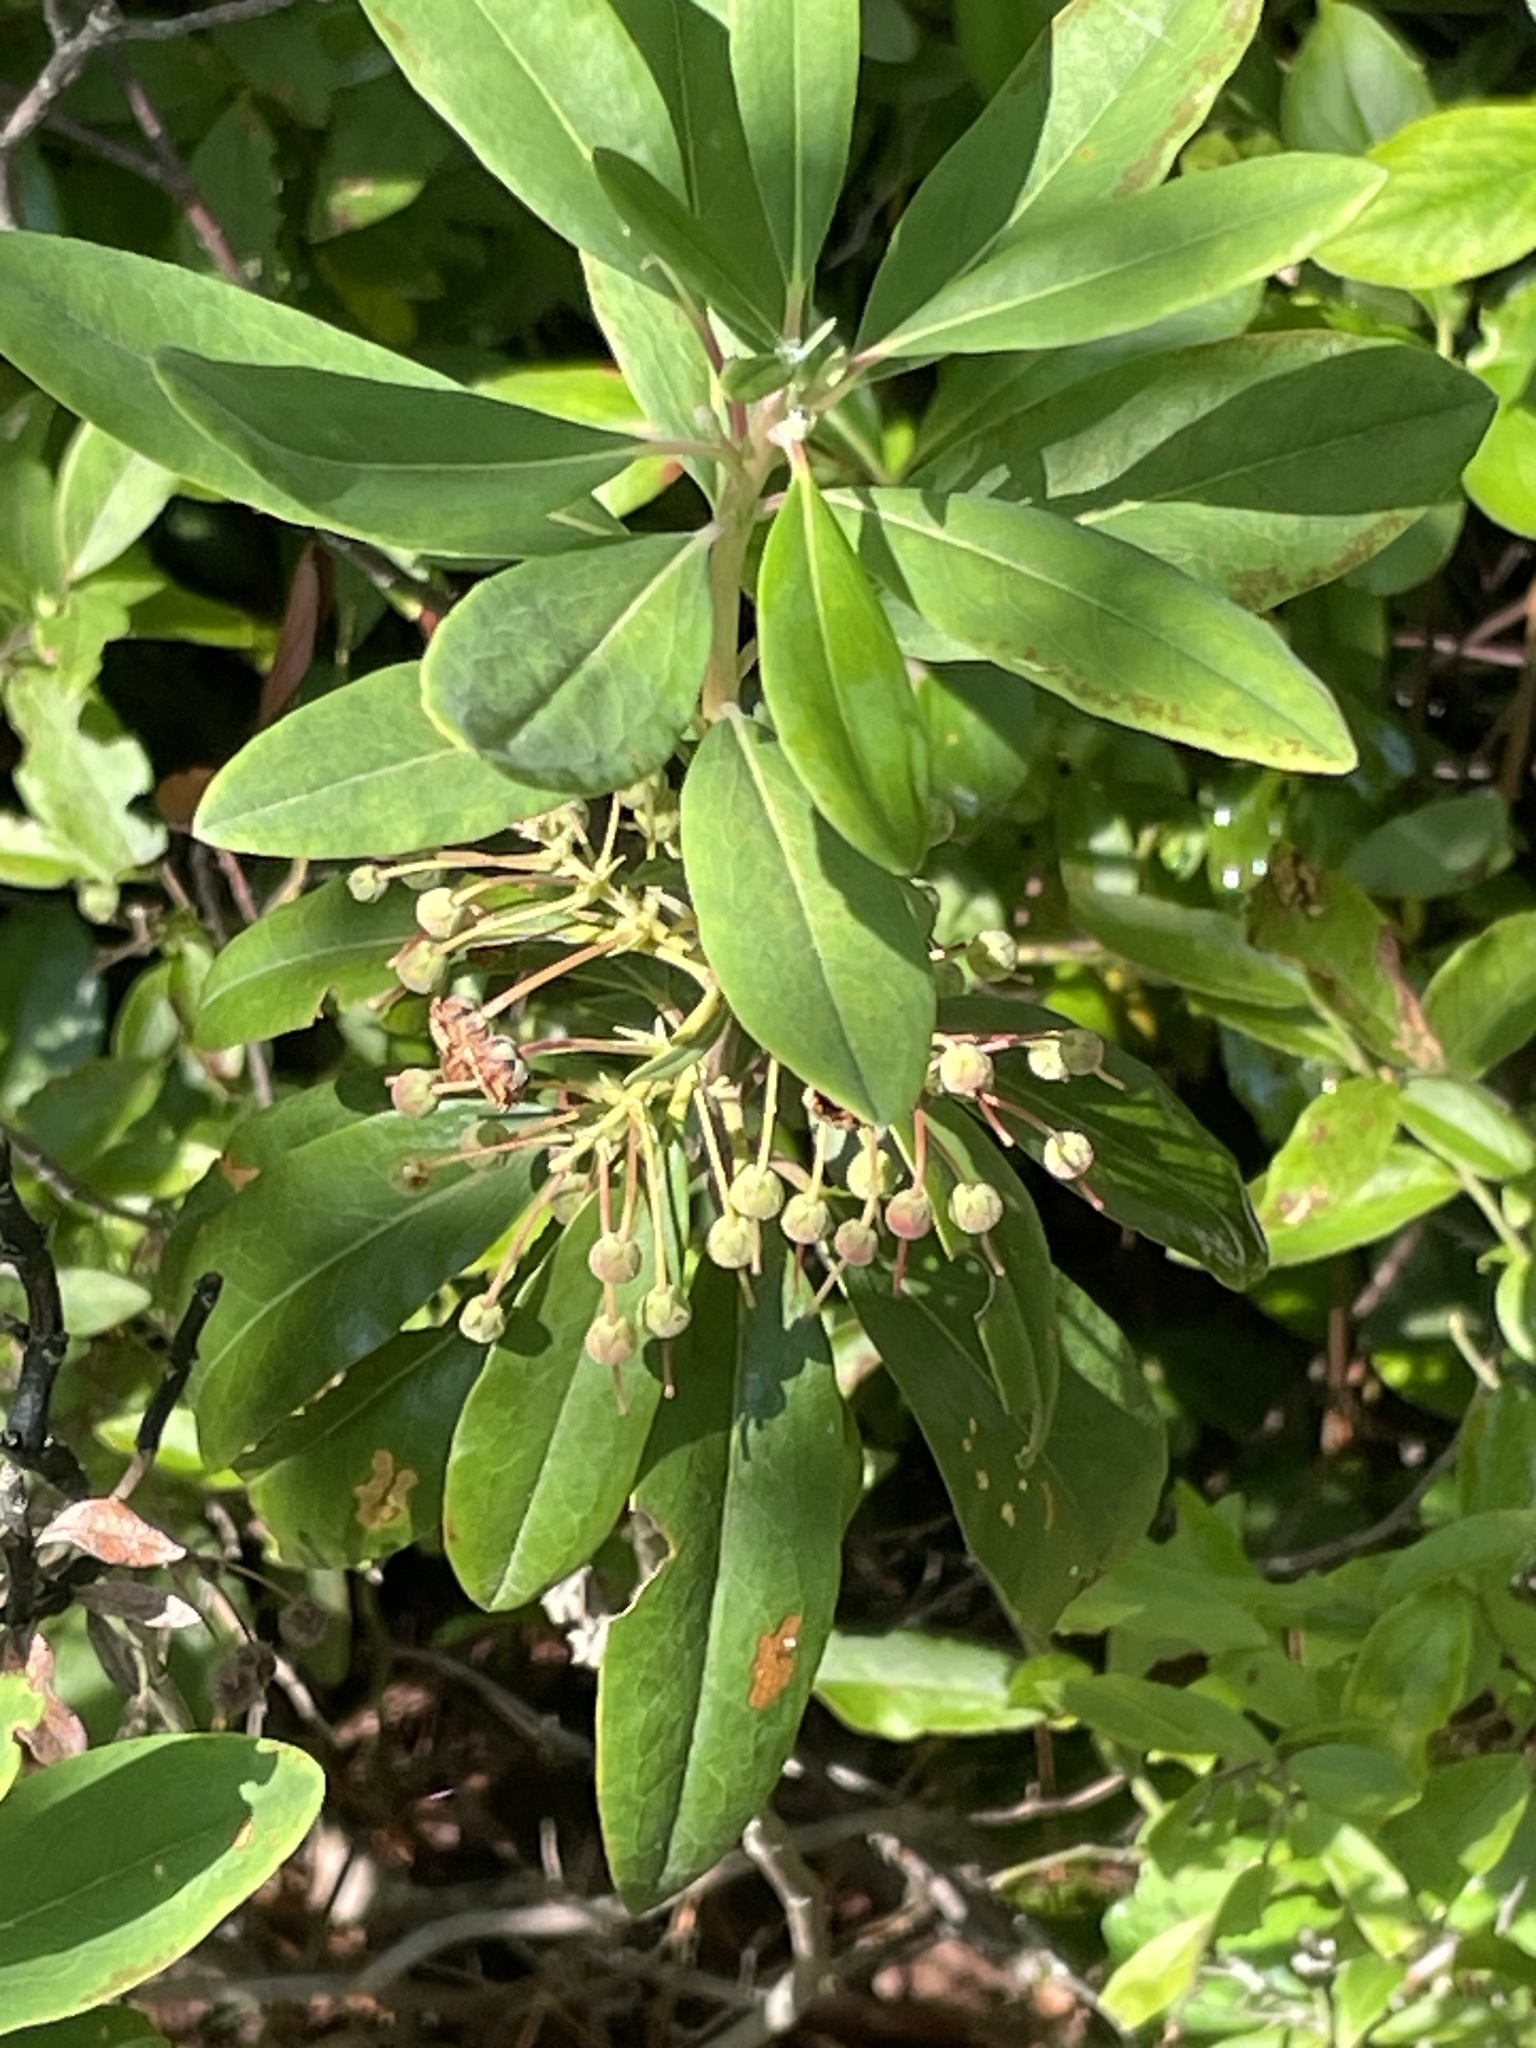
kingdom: Plantae
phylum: Tracheophyta
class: Magnoliopsida
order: Ericales
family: Ericaceae
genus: Kalmia
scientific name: Kalmia angustifolia
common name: Sheep-laurel
